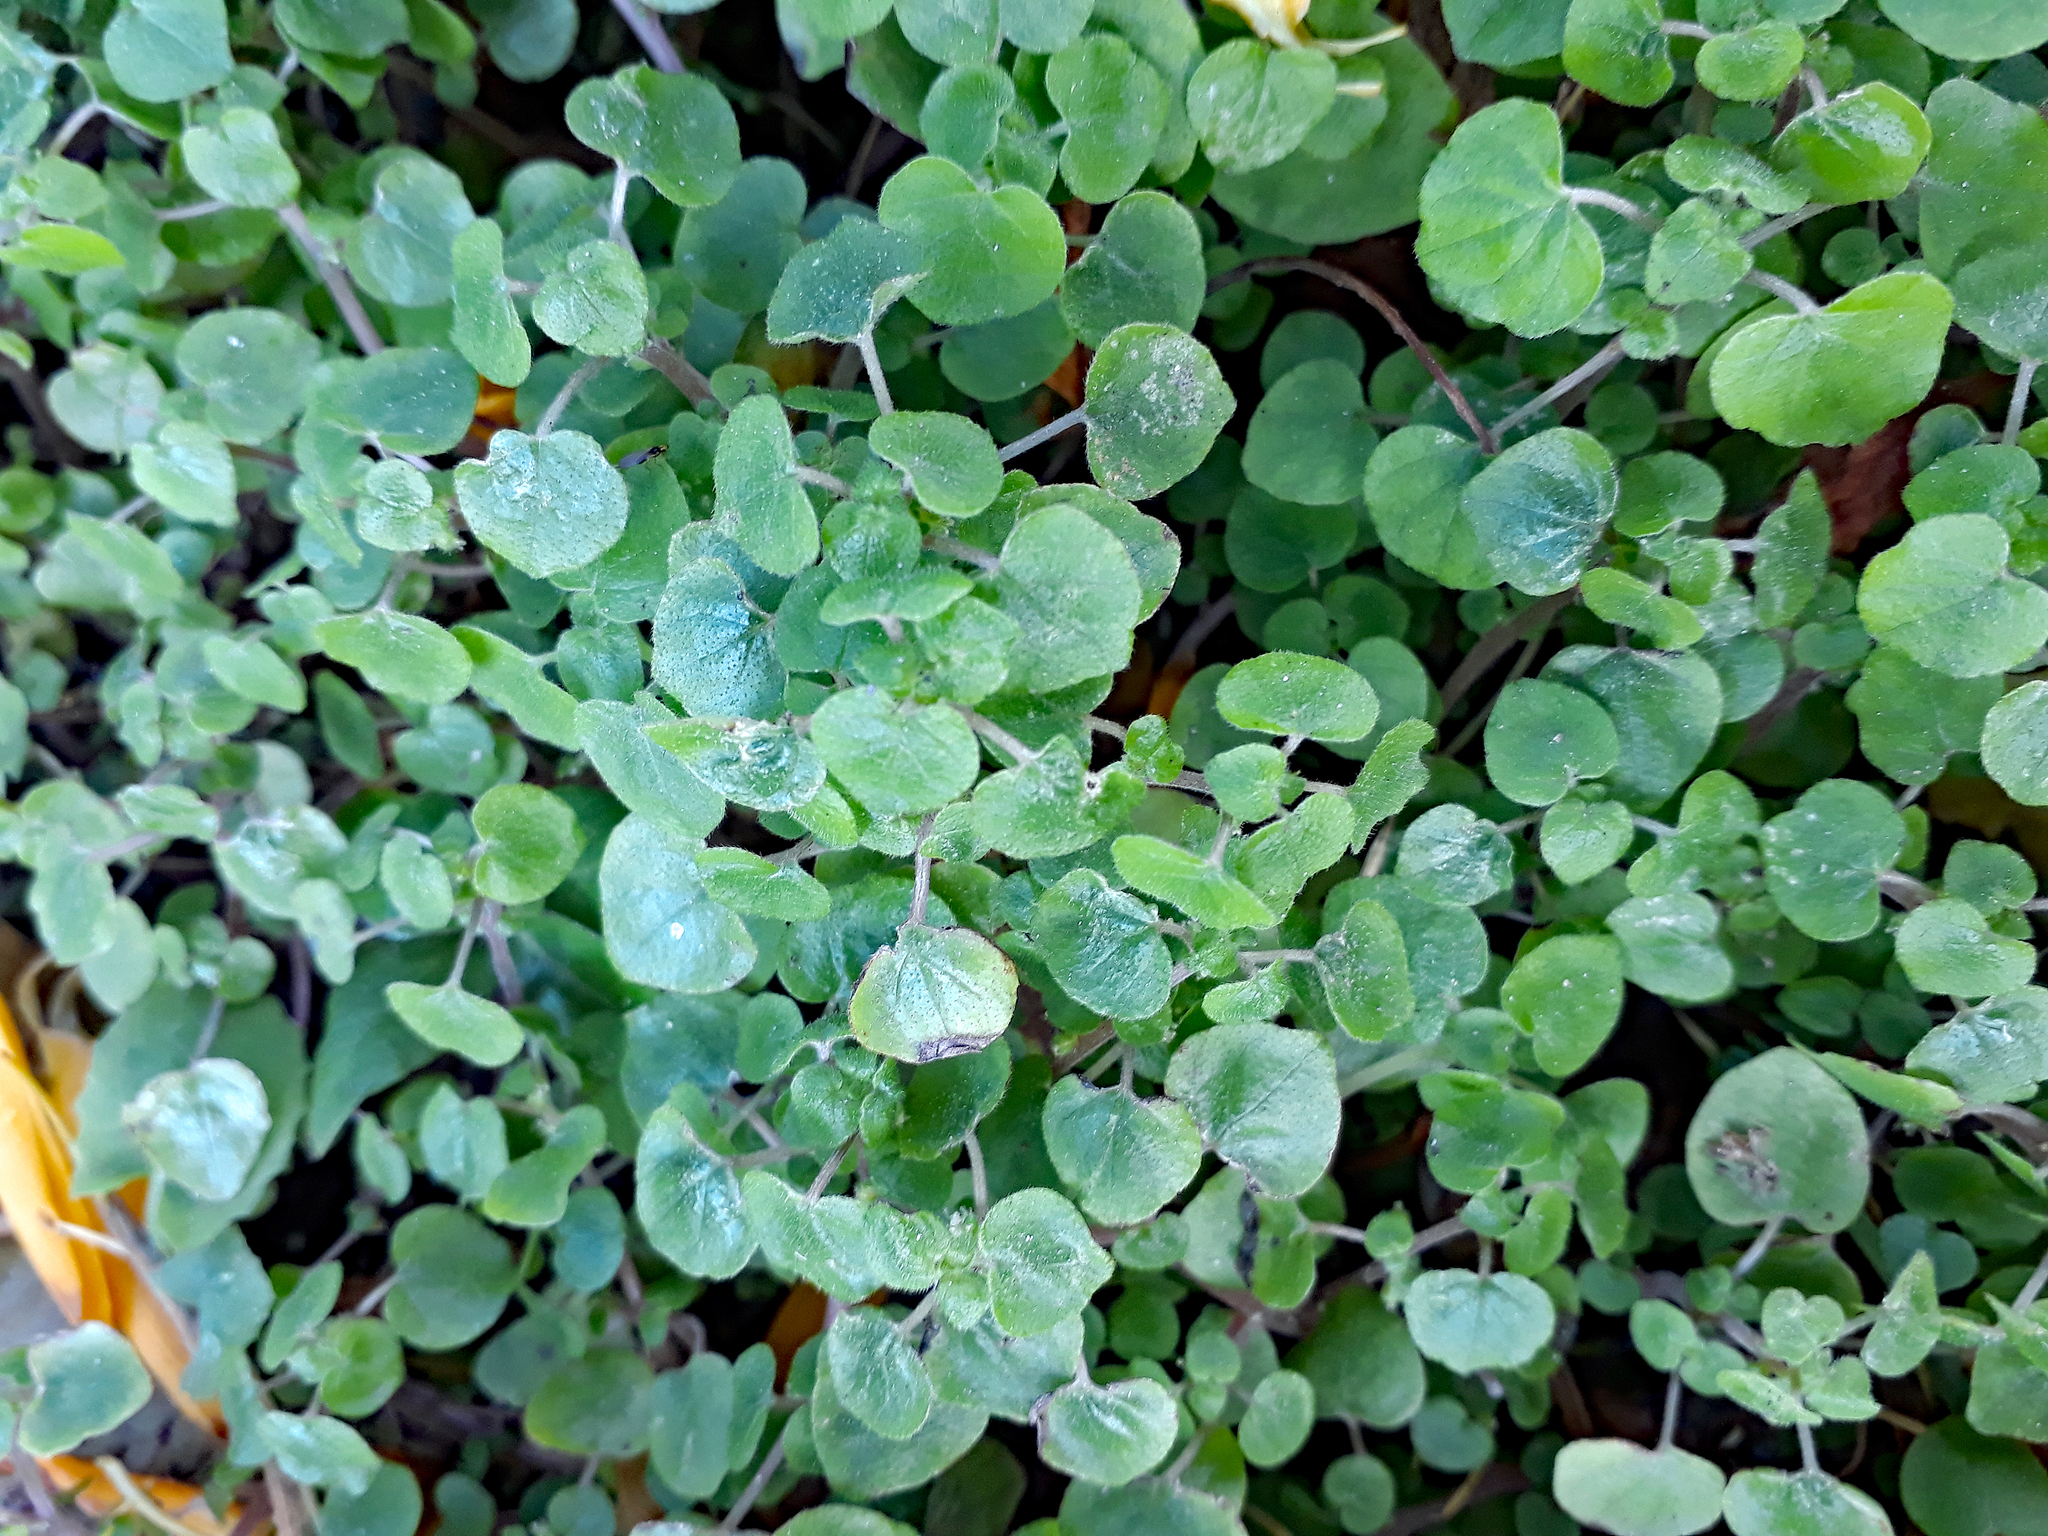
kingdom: Plantae
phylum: Tracheophyta
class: Magnoliopsida
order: Rosales
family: Urticaceae
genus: Parietaria
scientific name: Parietaria debilis
